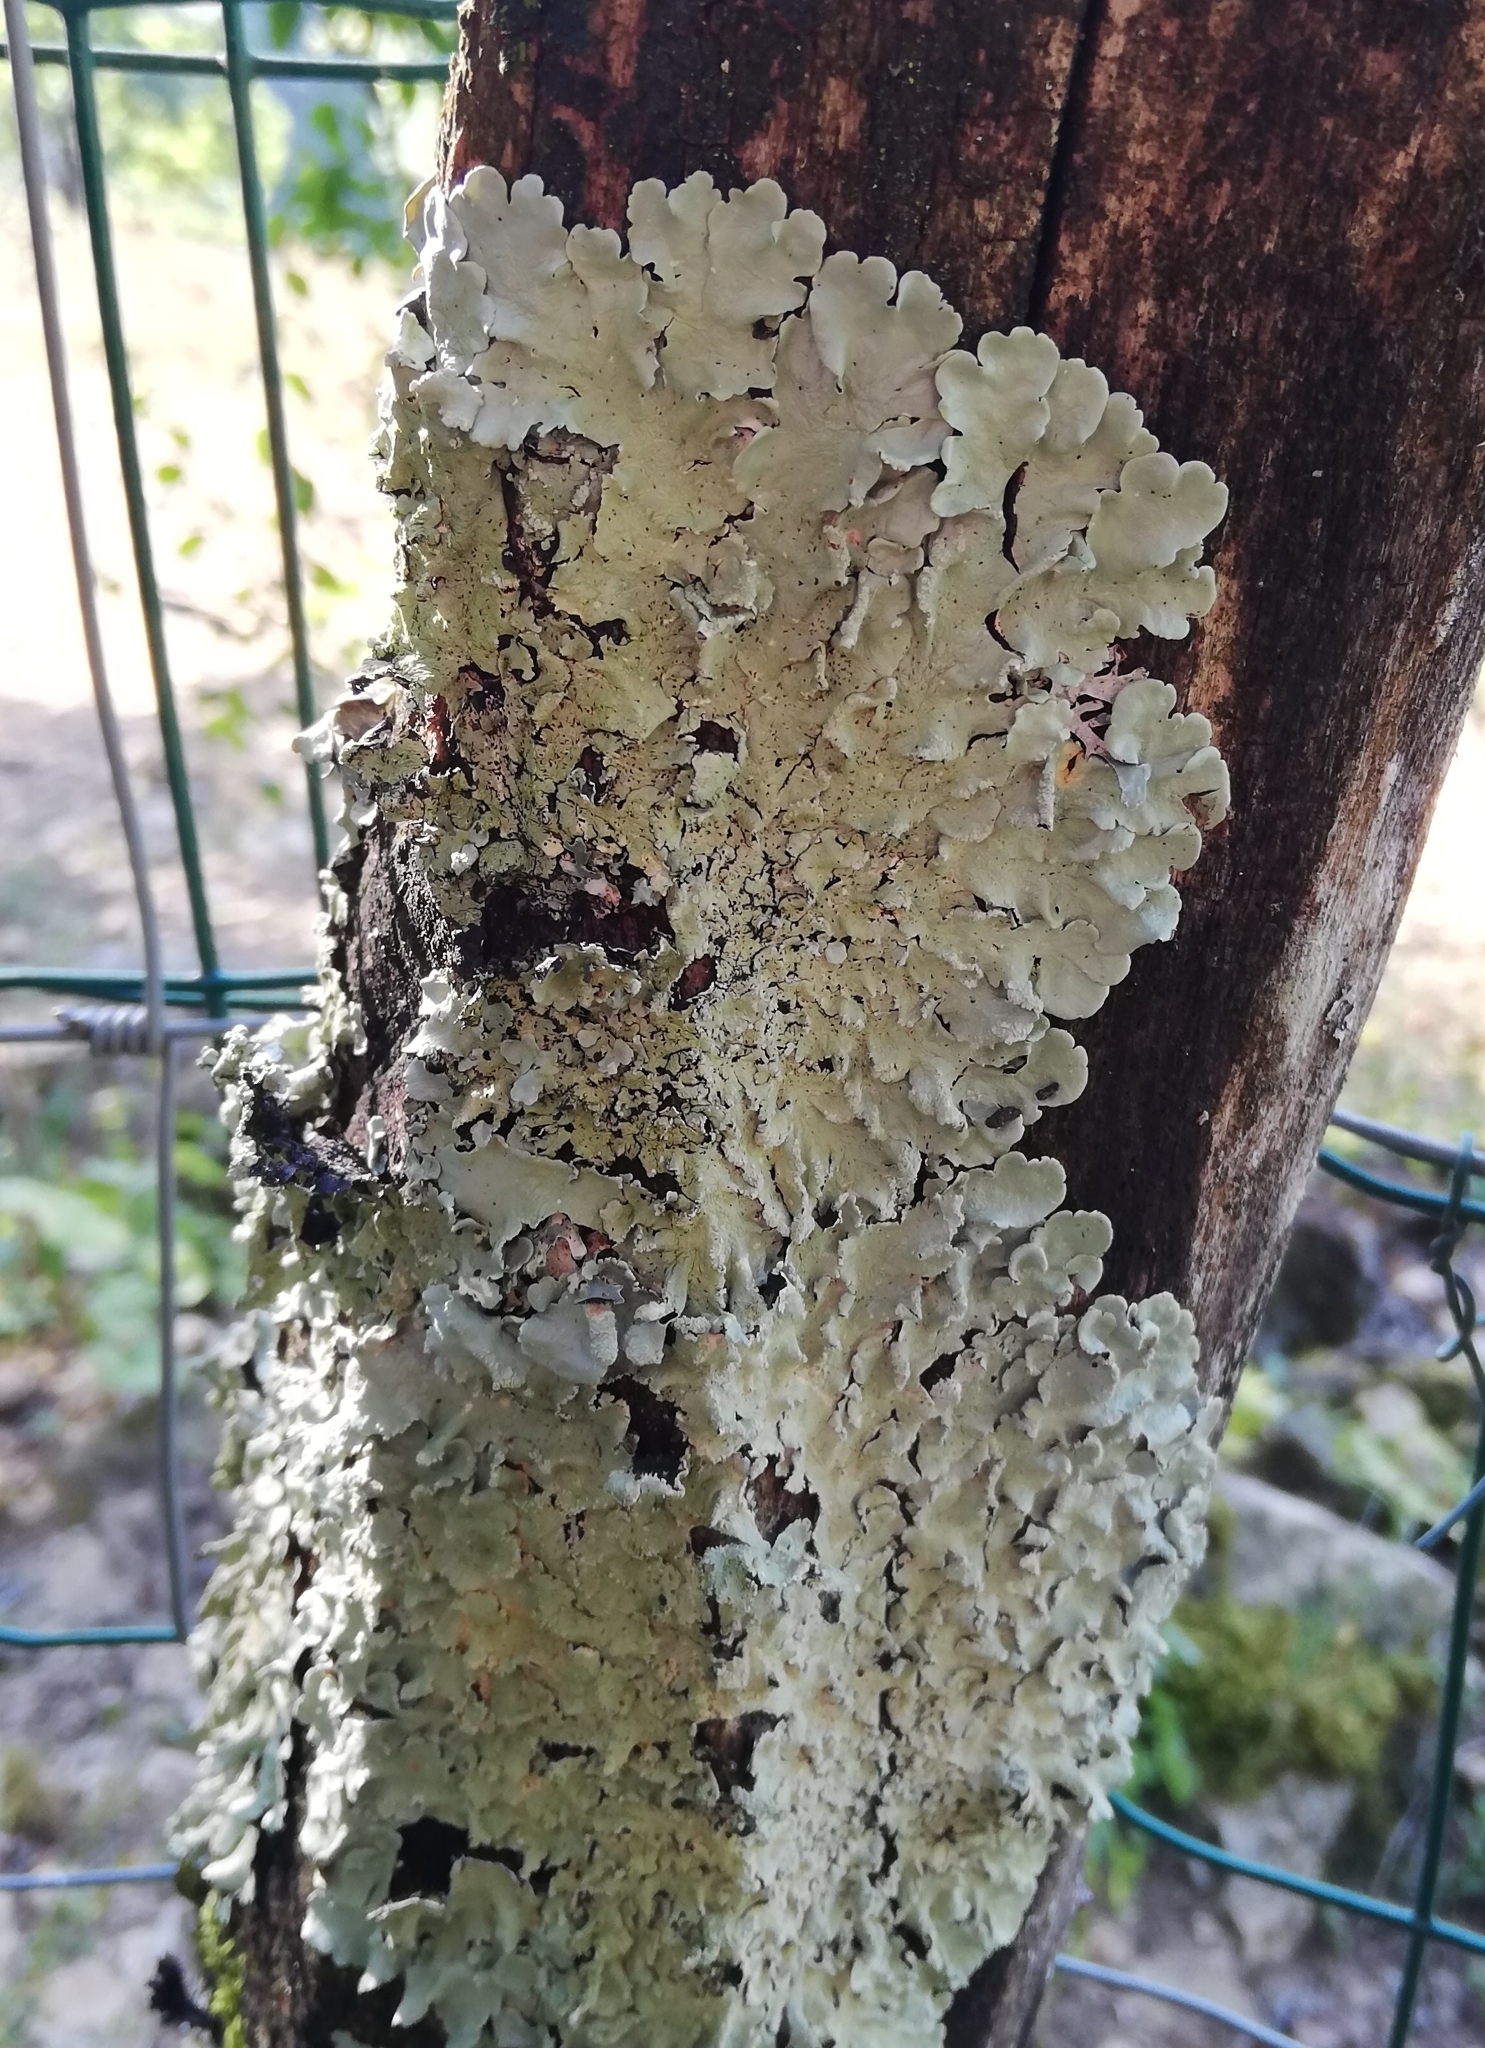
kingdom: Fungi
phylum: Ascomycota
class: Lecanoromycetes
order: Lecanorales
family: Parmeliaceae
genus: Flavoparmelia
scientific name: Flavoparmelia caperata
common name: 40-mile per hour lichen
